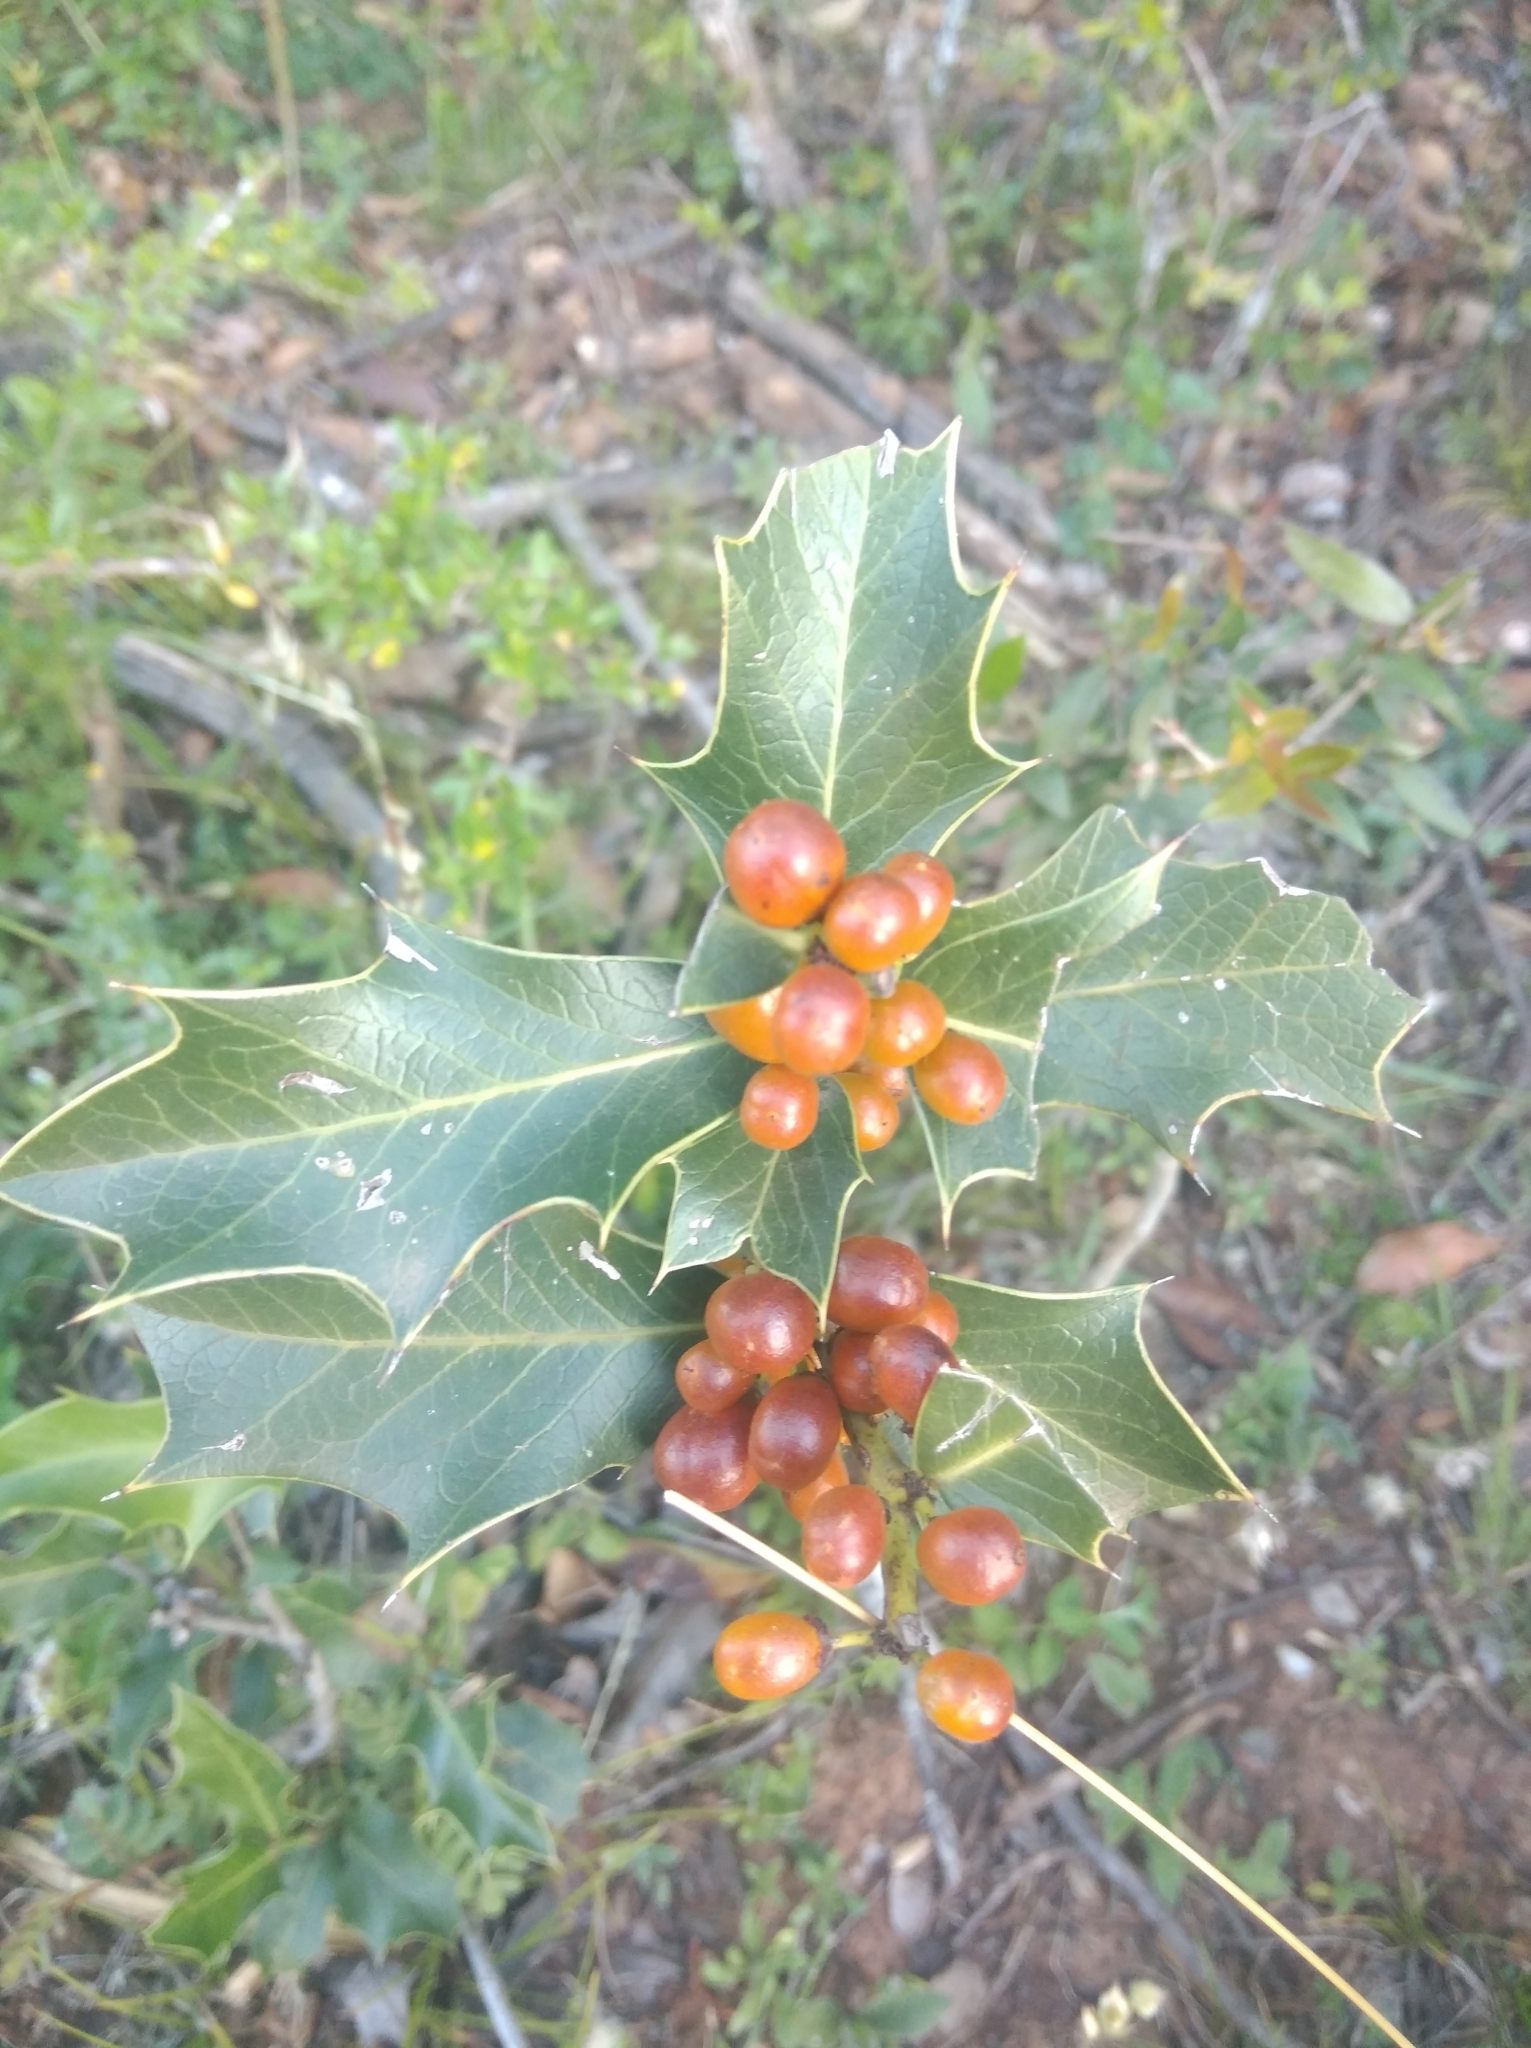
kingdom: Plantae
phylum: Tracheophyta
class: Magnoliopsida
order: Celastrales
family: Celastraceae
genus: Monteverdia
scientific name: Monteverdia
